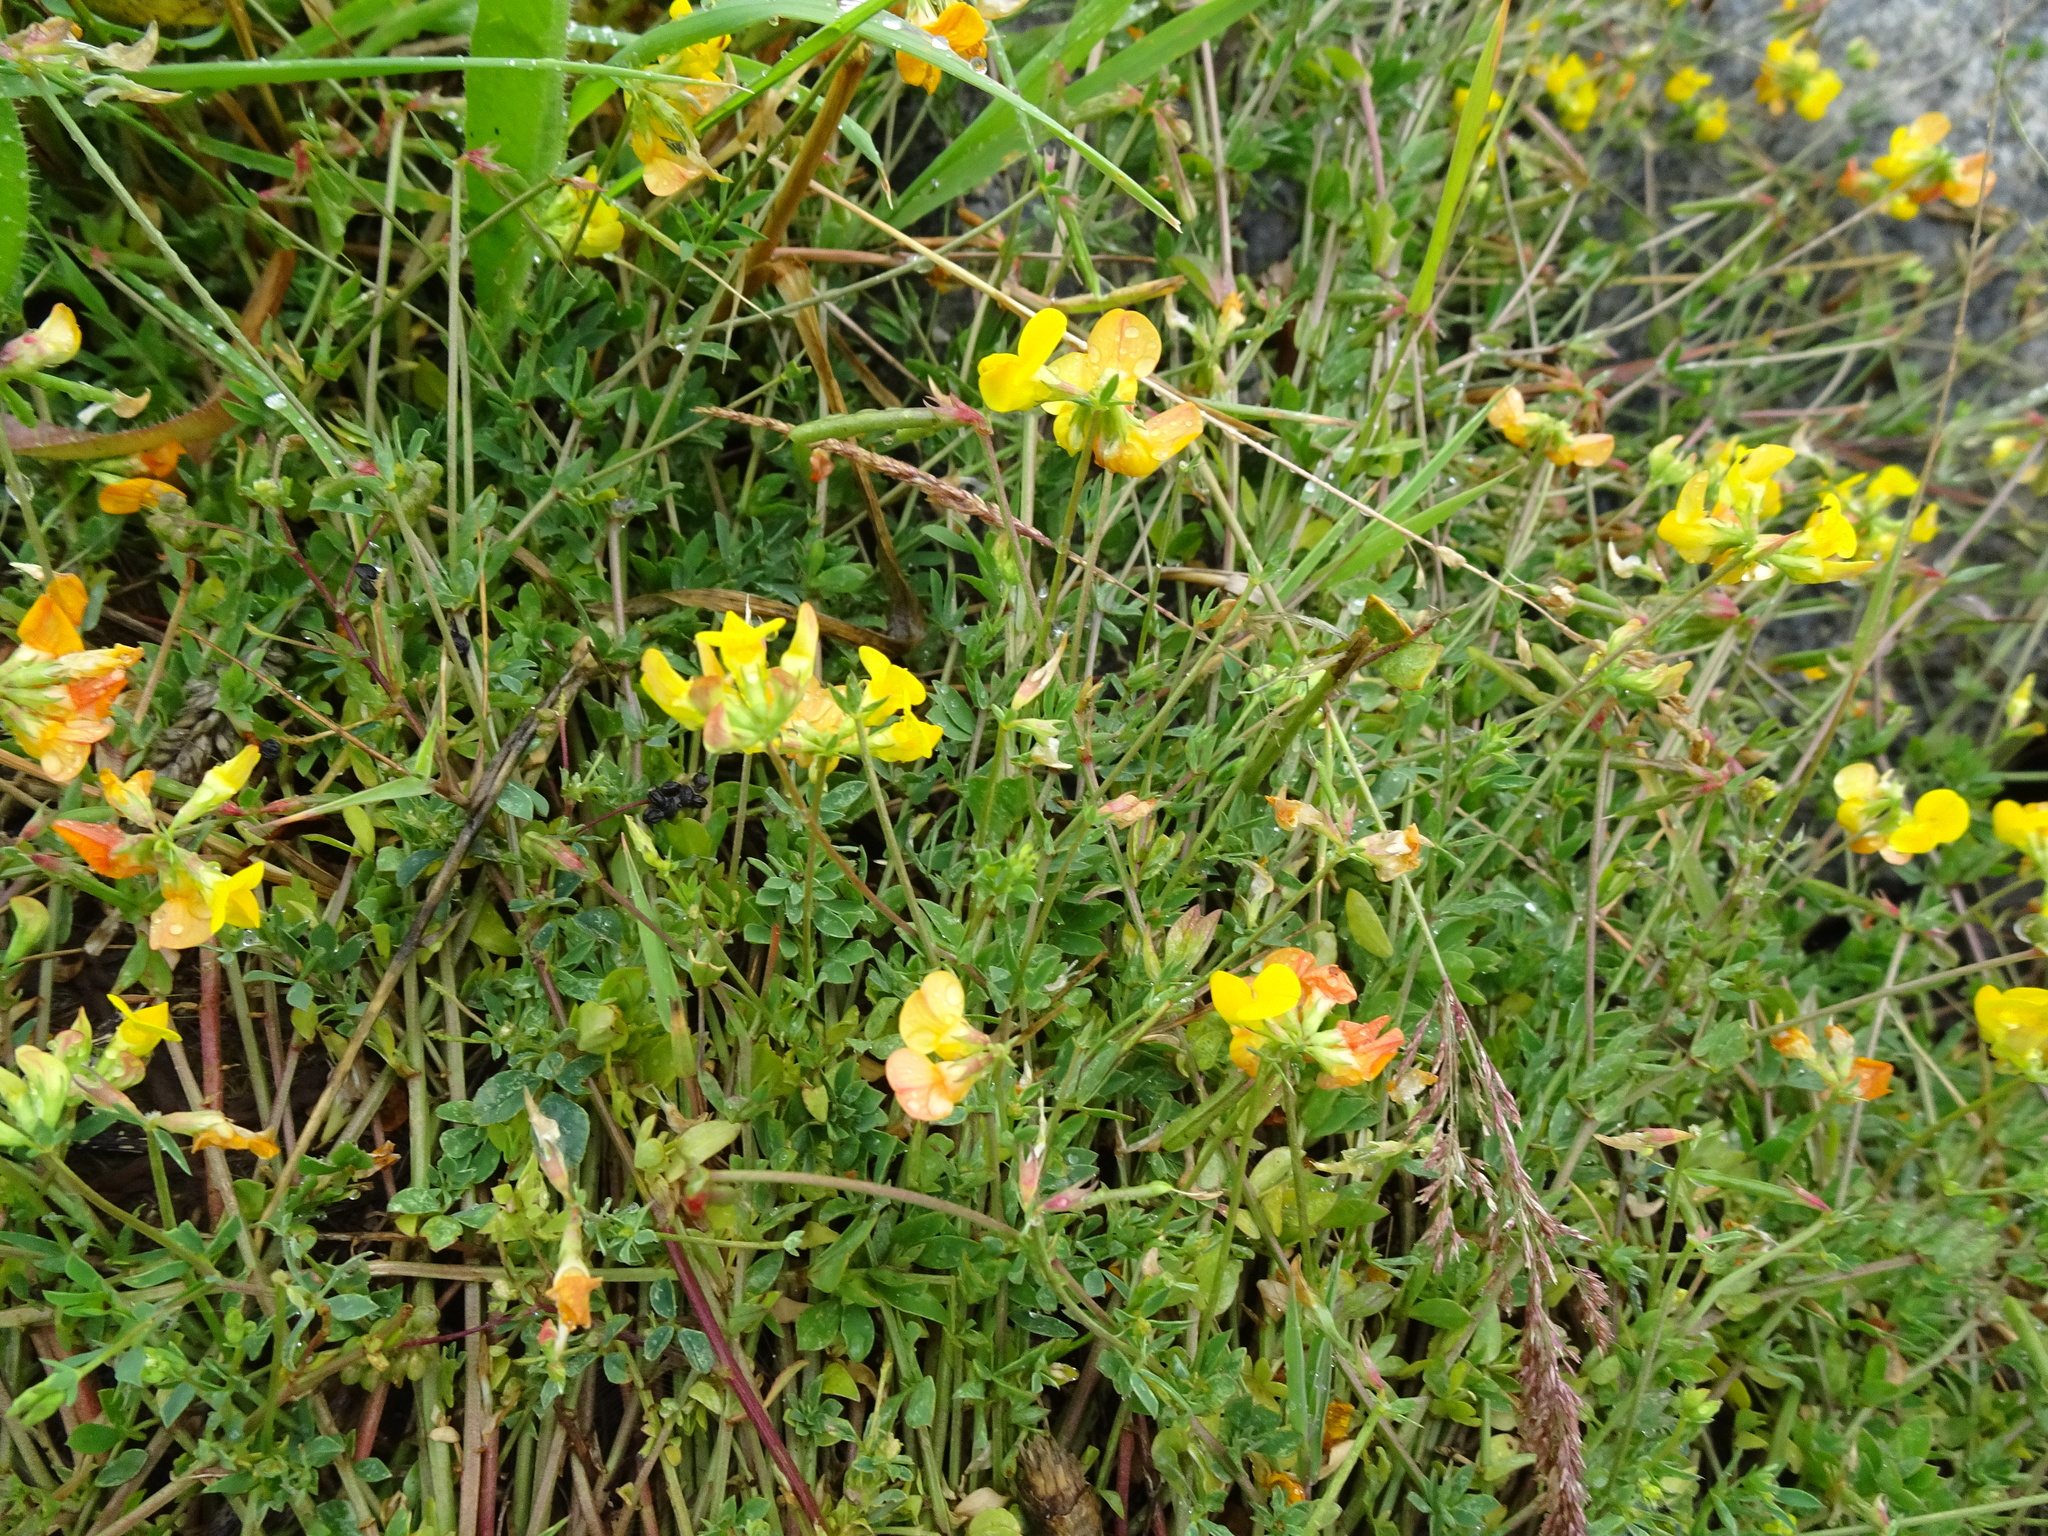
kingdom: Plantae
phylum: Tracheophyta
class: Magnoliopsida
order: Fabales
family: Fabaceae
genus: Lotus
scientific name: Lotus corniculatus
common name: Common bird's-foot-trefoil
